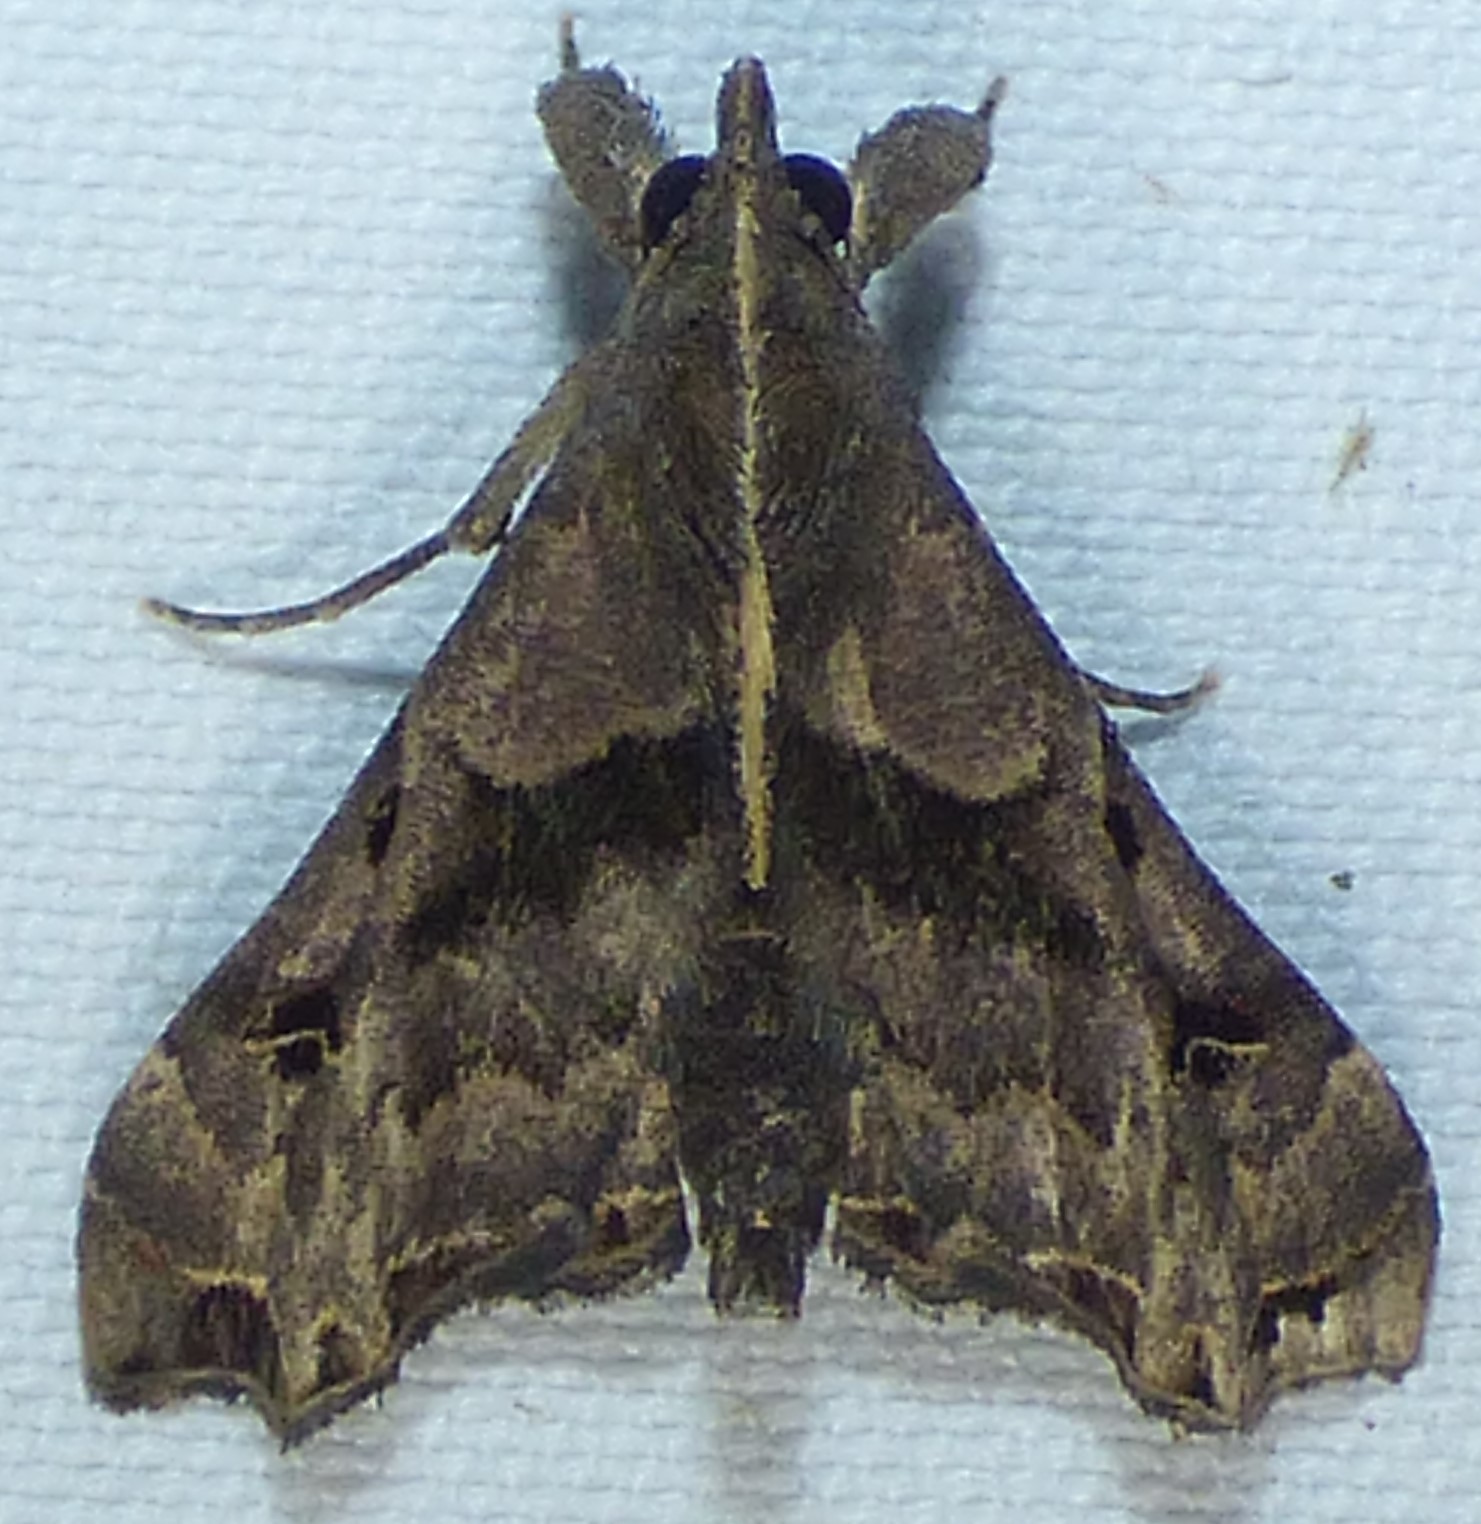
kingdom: Animalia
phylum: Arthropoda
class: Insecta
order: Lepidoptera
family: Erebidae
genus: Palthis
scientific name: Palthis asopialis
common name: Faint-spotted palthis moth
